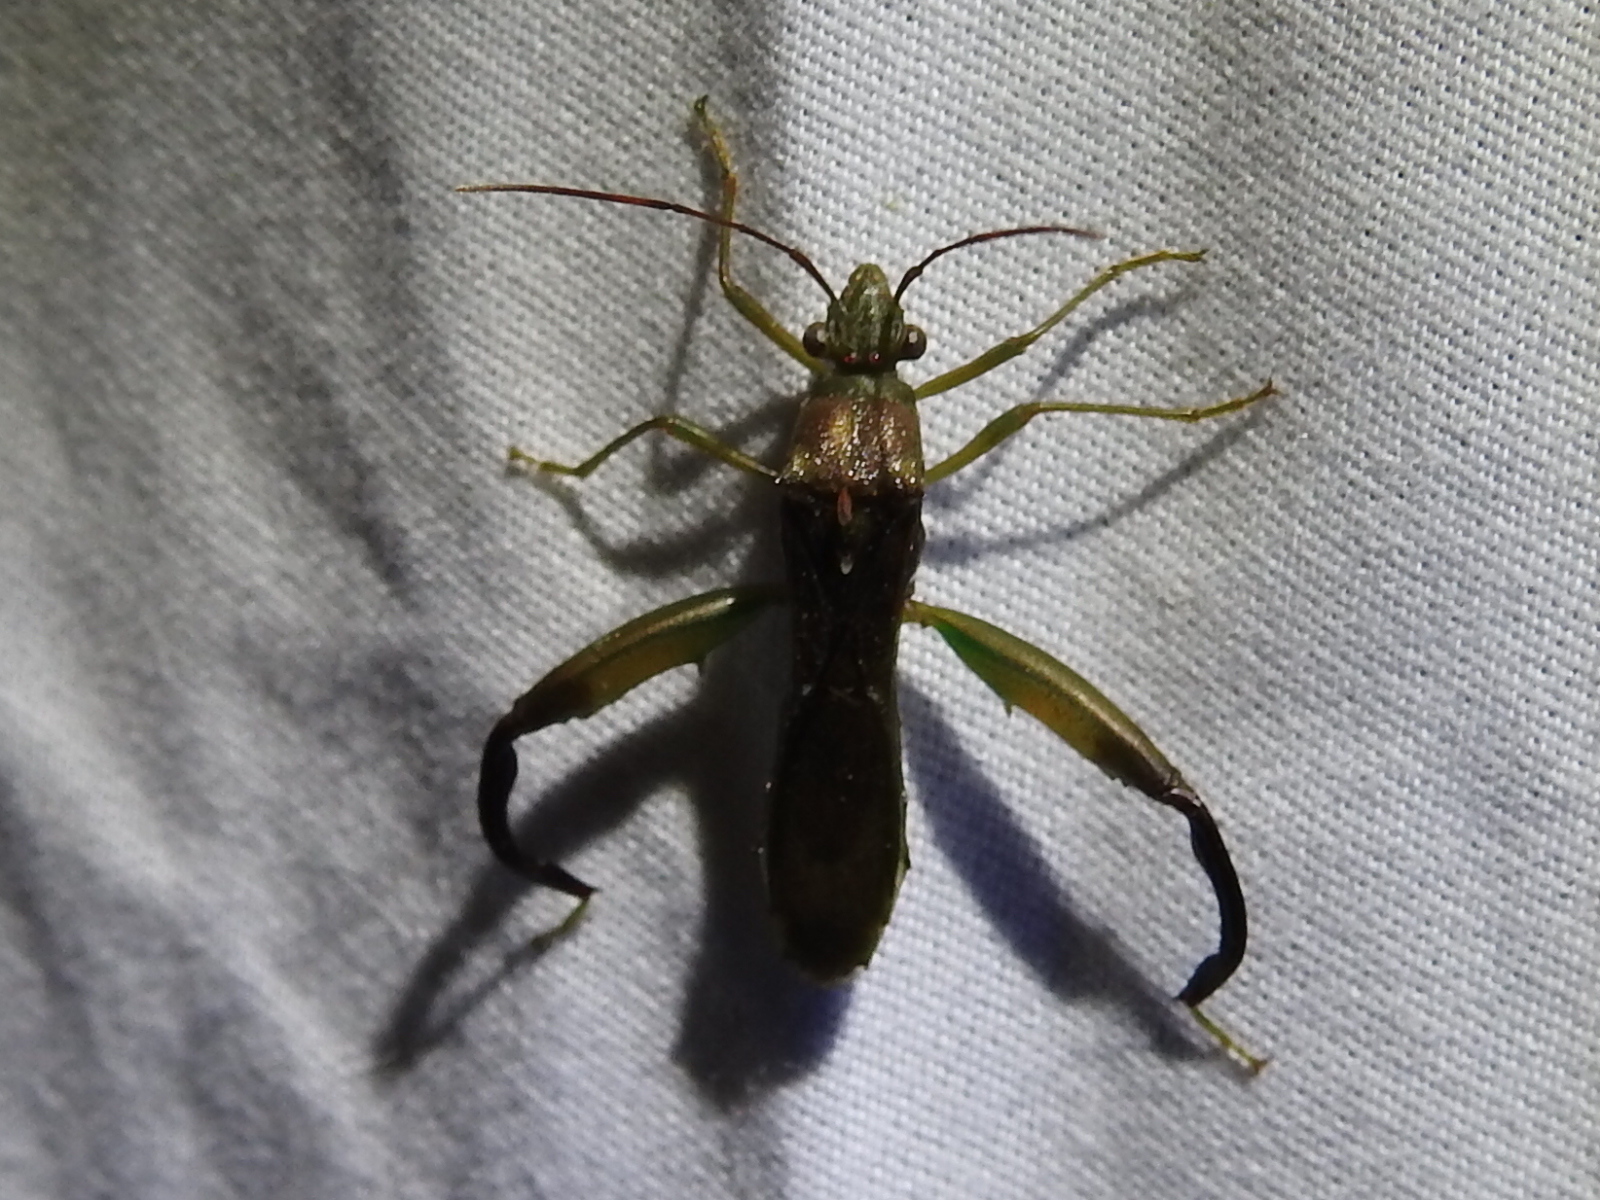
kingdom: Animalia
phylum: Arthropoda
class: Insecta
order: Hemiptera
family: Alydidae
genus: Hyalymenus
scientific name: Hyalymenus tarsatus
